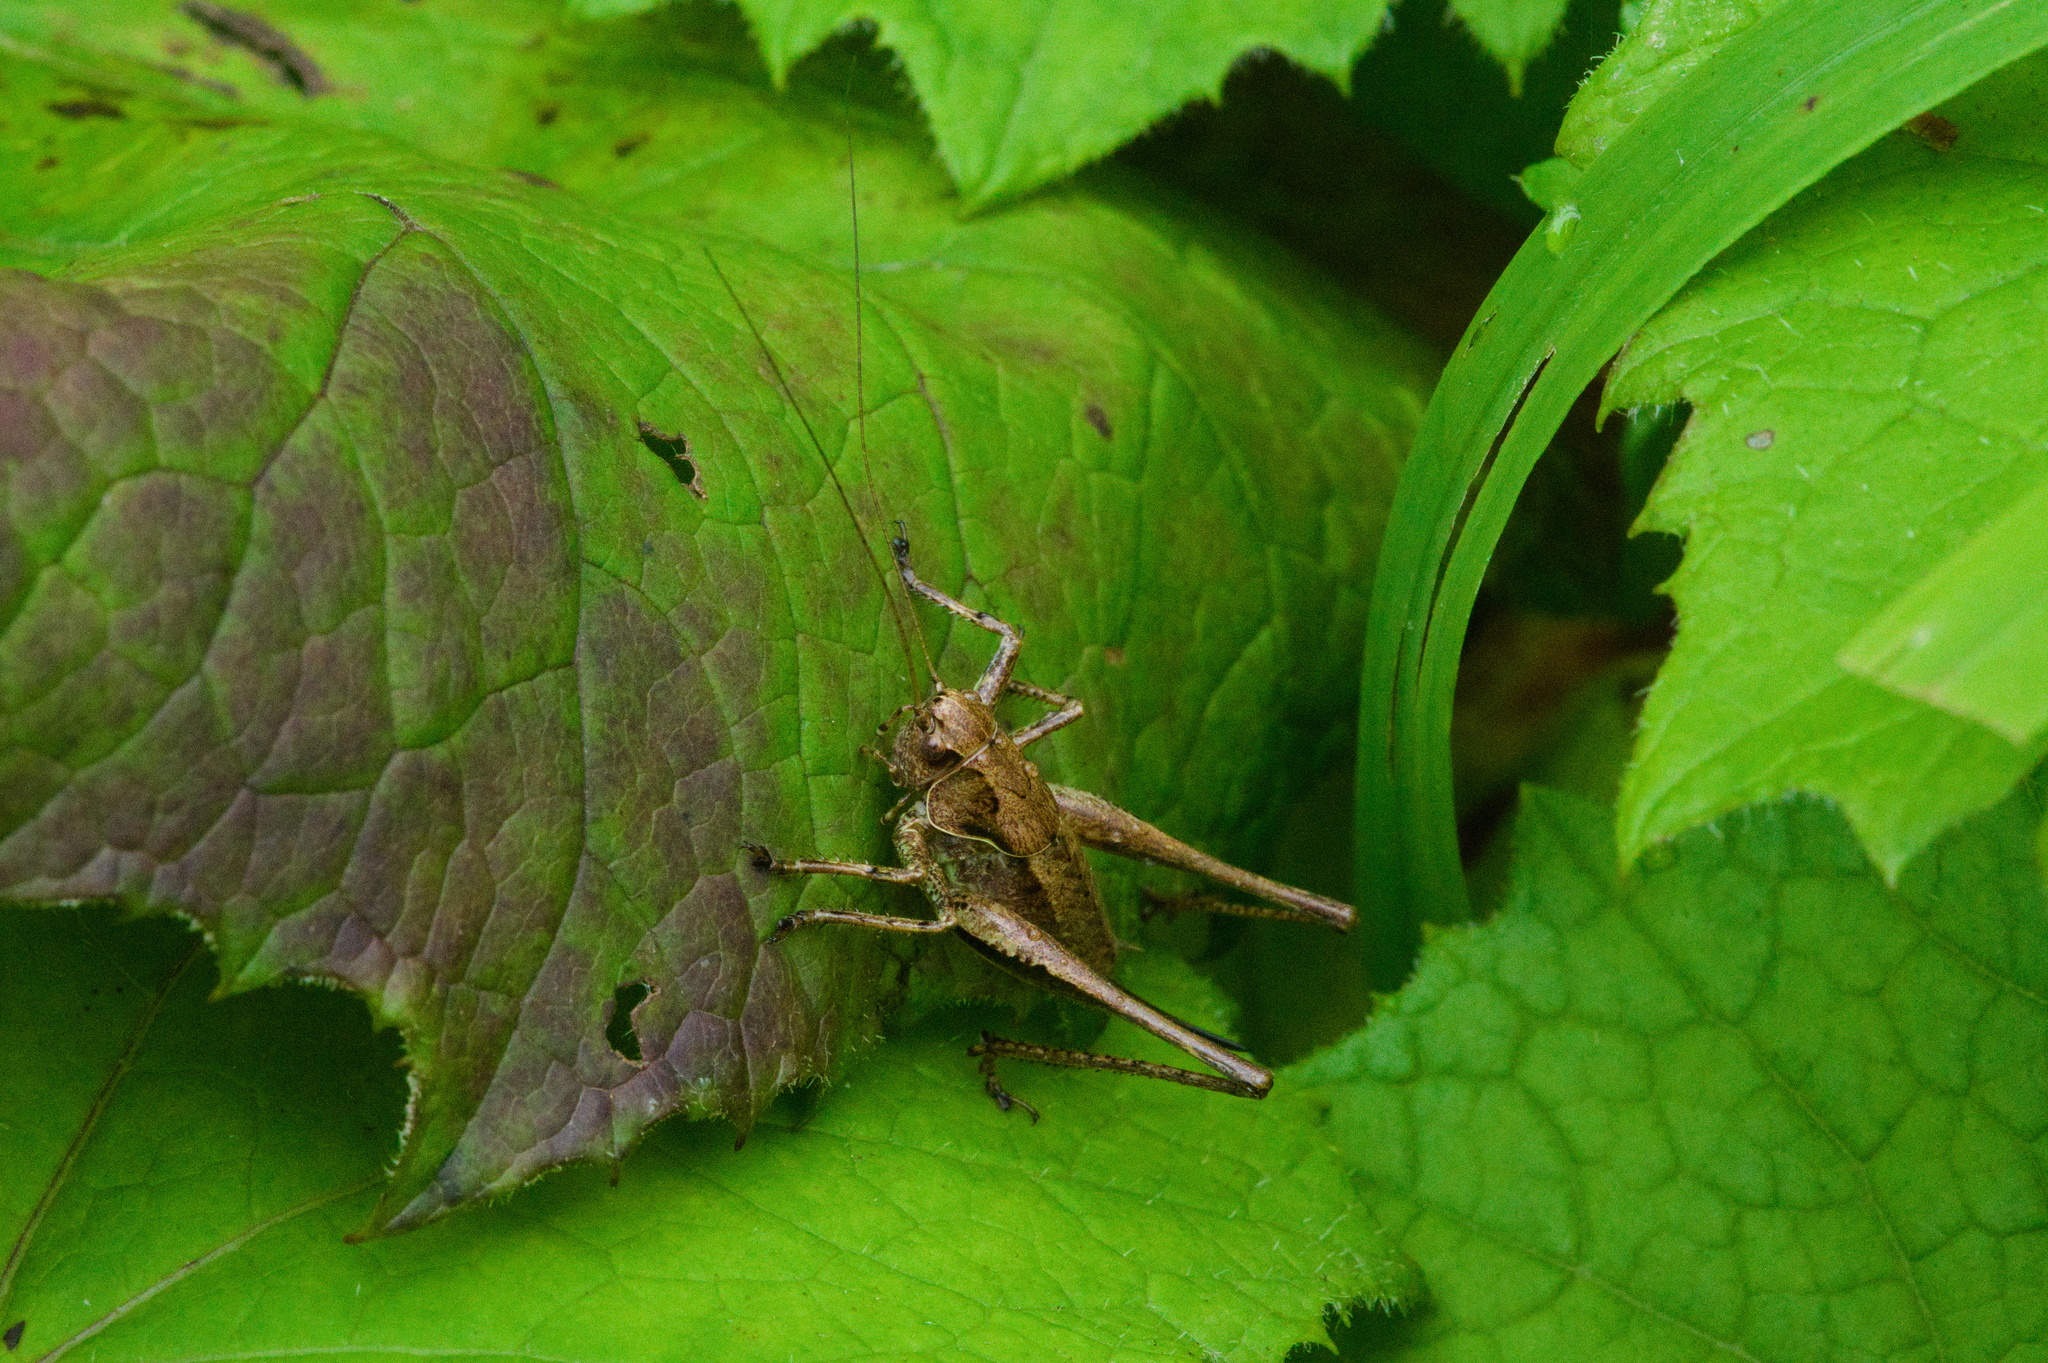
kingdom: Animalia
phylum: Arthropoda
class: Insecta
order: Orthoptera
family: Tettigoniidae
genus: Pholidoptera
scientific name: Pholidoptera griseoaptera
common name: Dark bush-cricket
